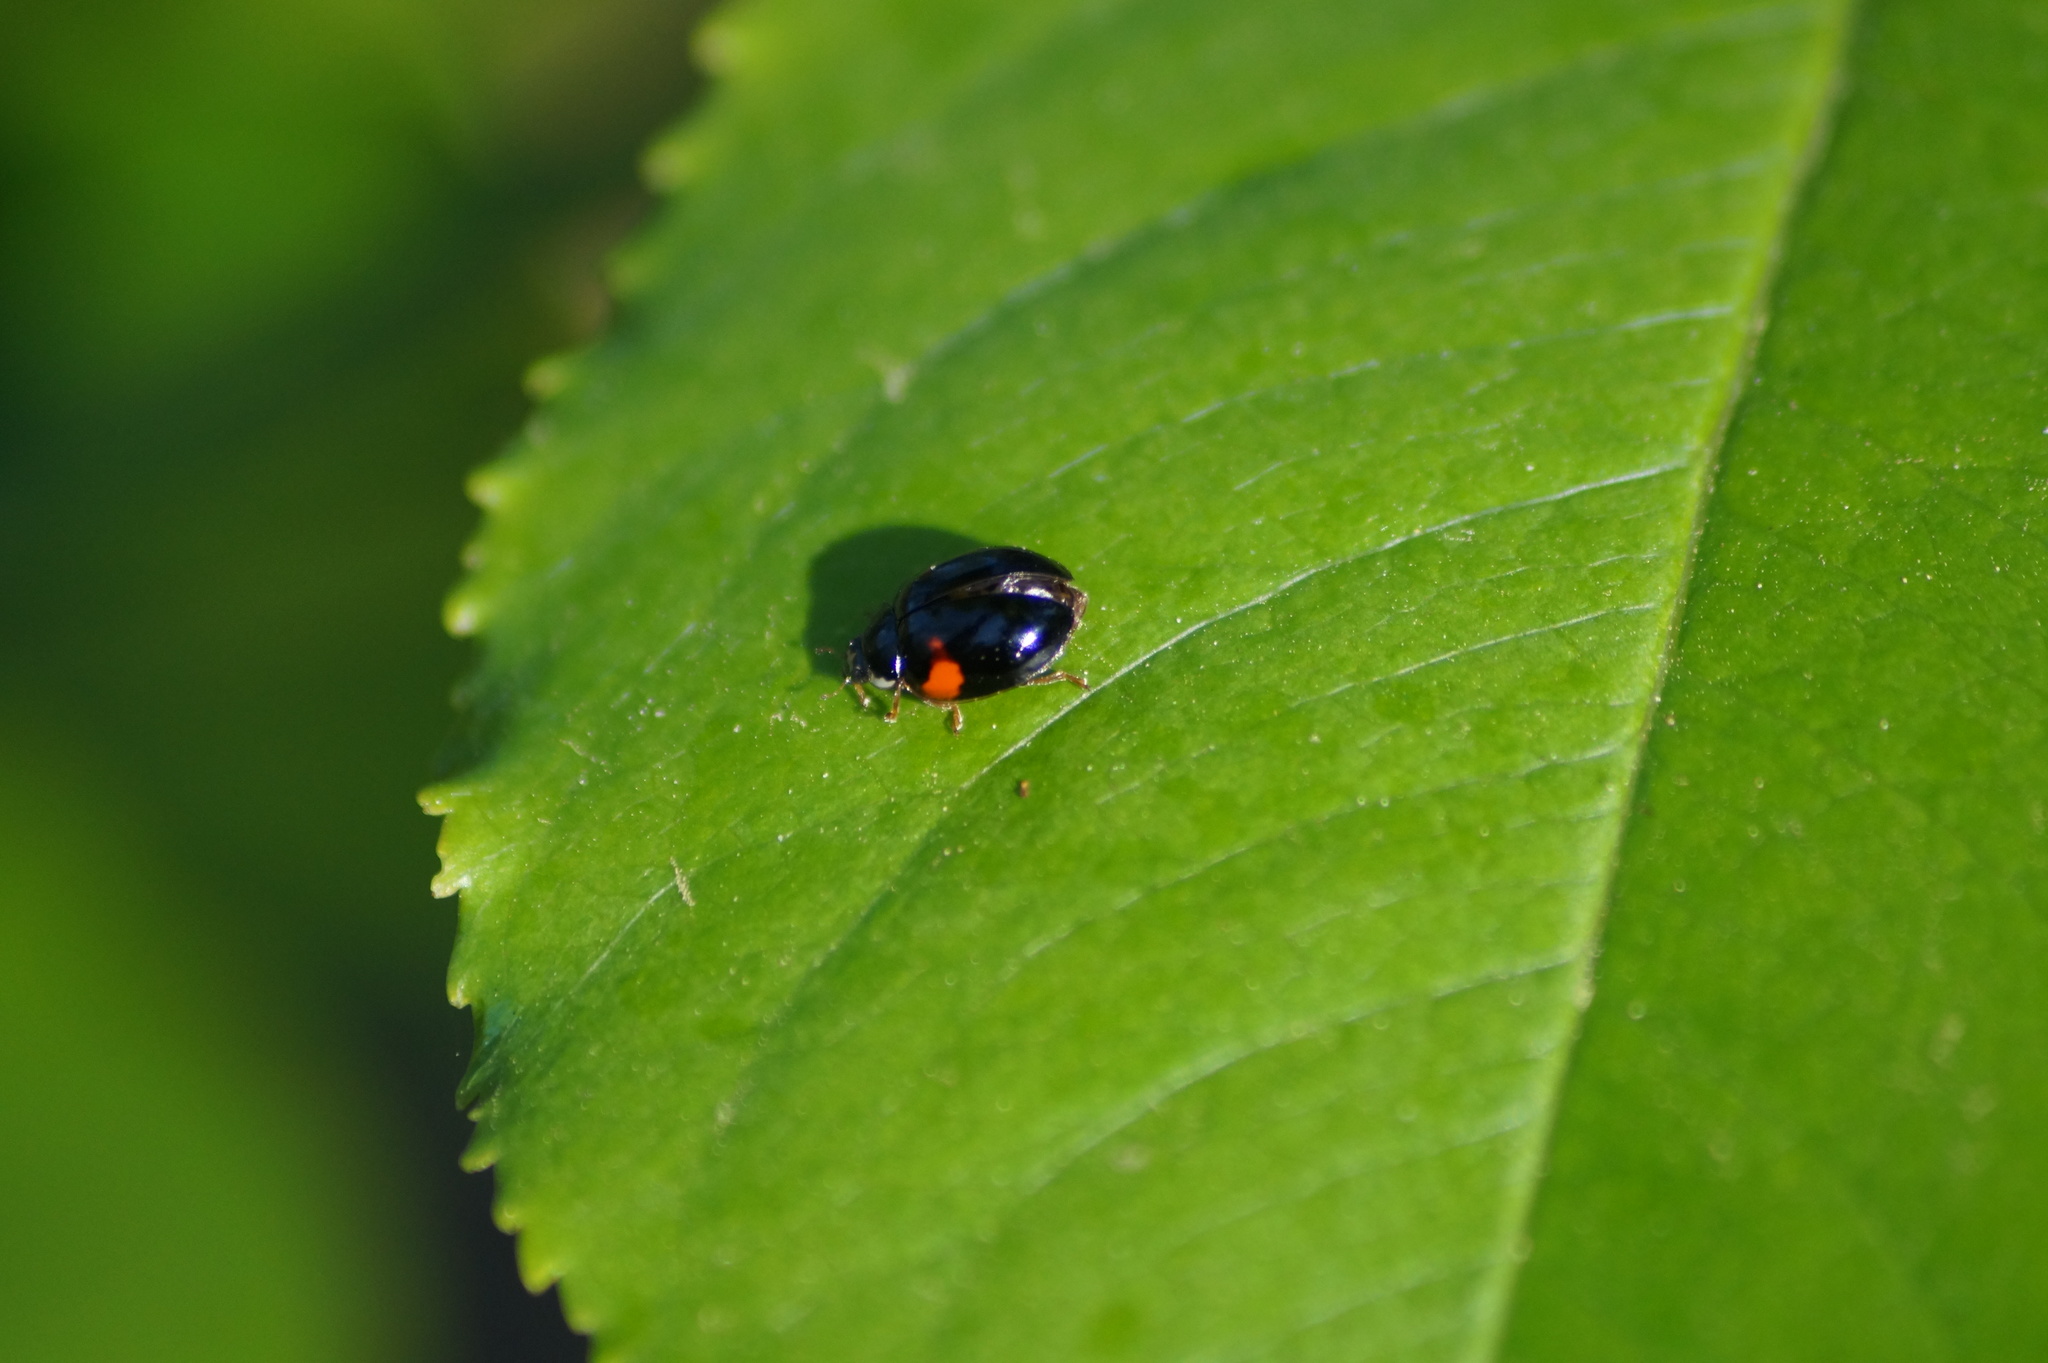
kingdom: Animalia
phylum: Arthropoda
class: Insecta
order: Coleoptera
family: Coccinellidae
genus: Adalia
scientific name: Adalia decempunctata
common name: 10-spot ladybird
